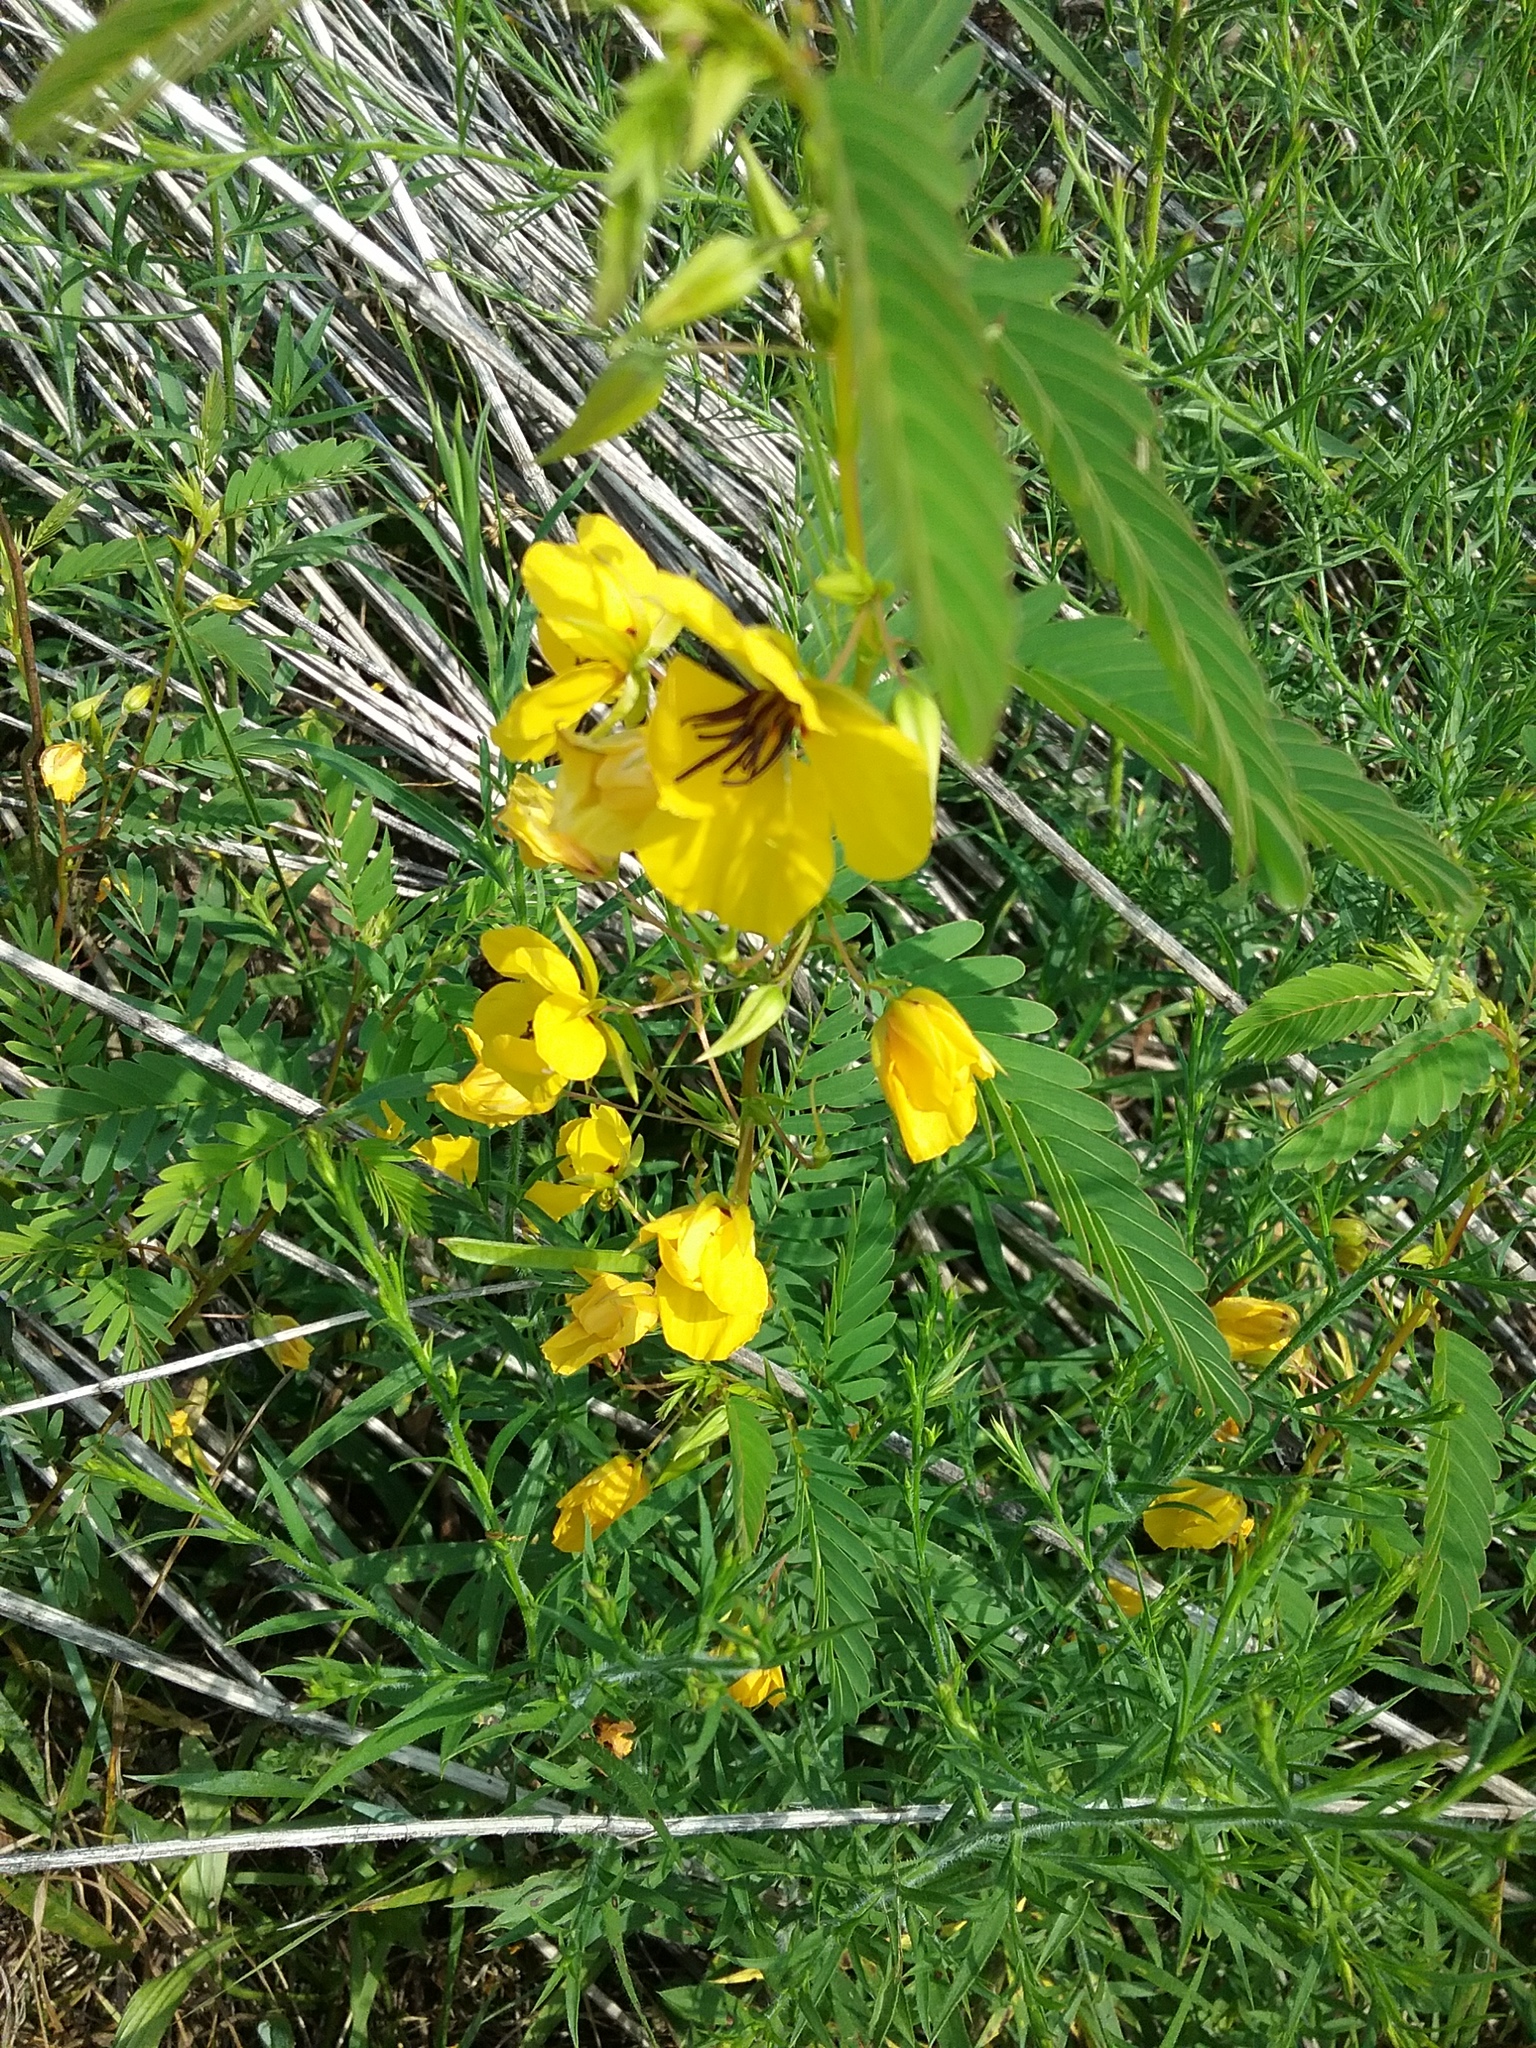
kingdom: Plantae
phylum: Tracheophyta
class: Magnoliopsida
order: Fabales
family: Fabaceae
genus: Chamaecrista
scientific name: Chamaecrista fasciculata
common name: Golden cassia
